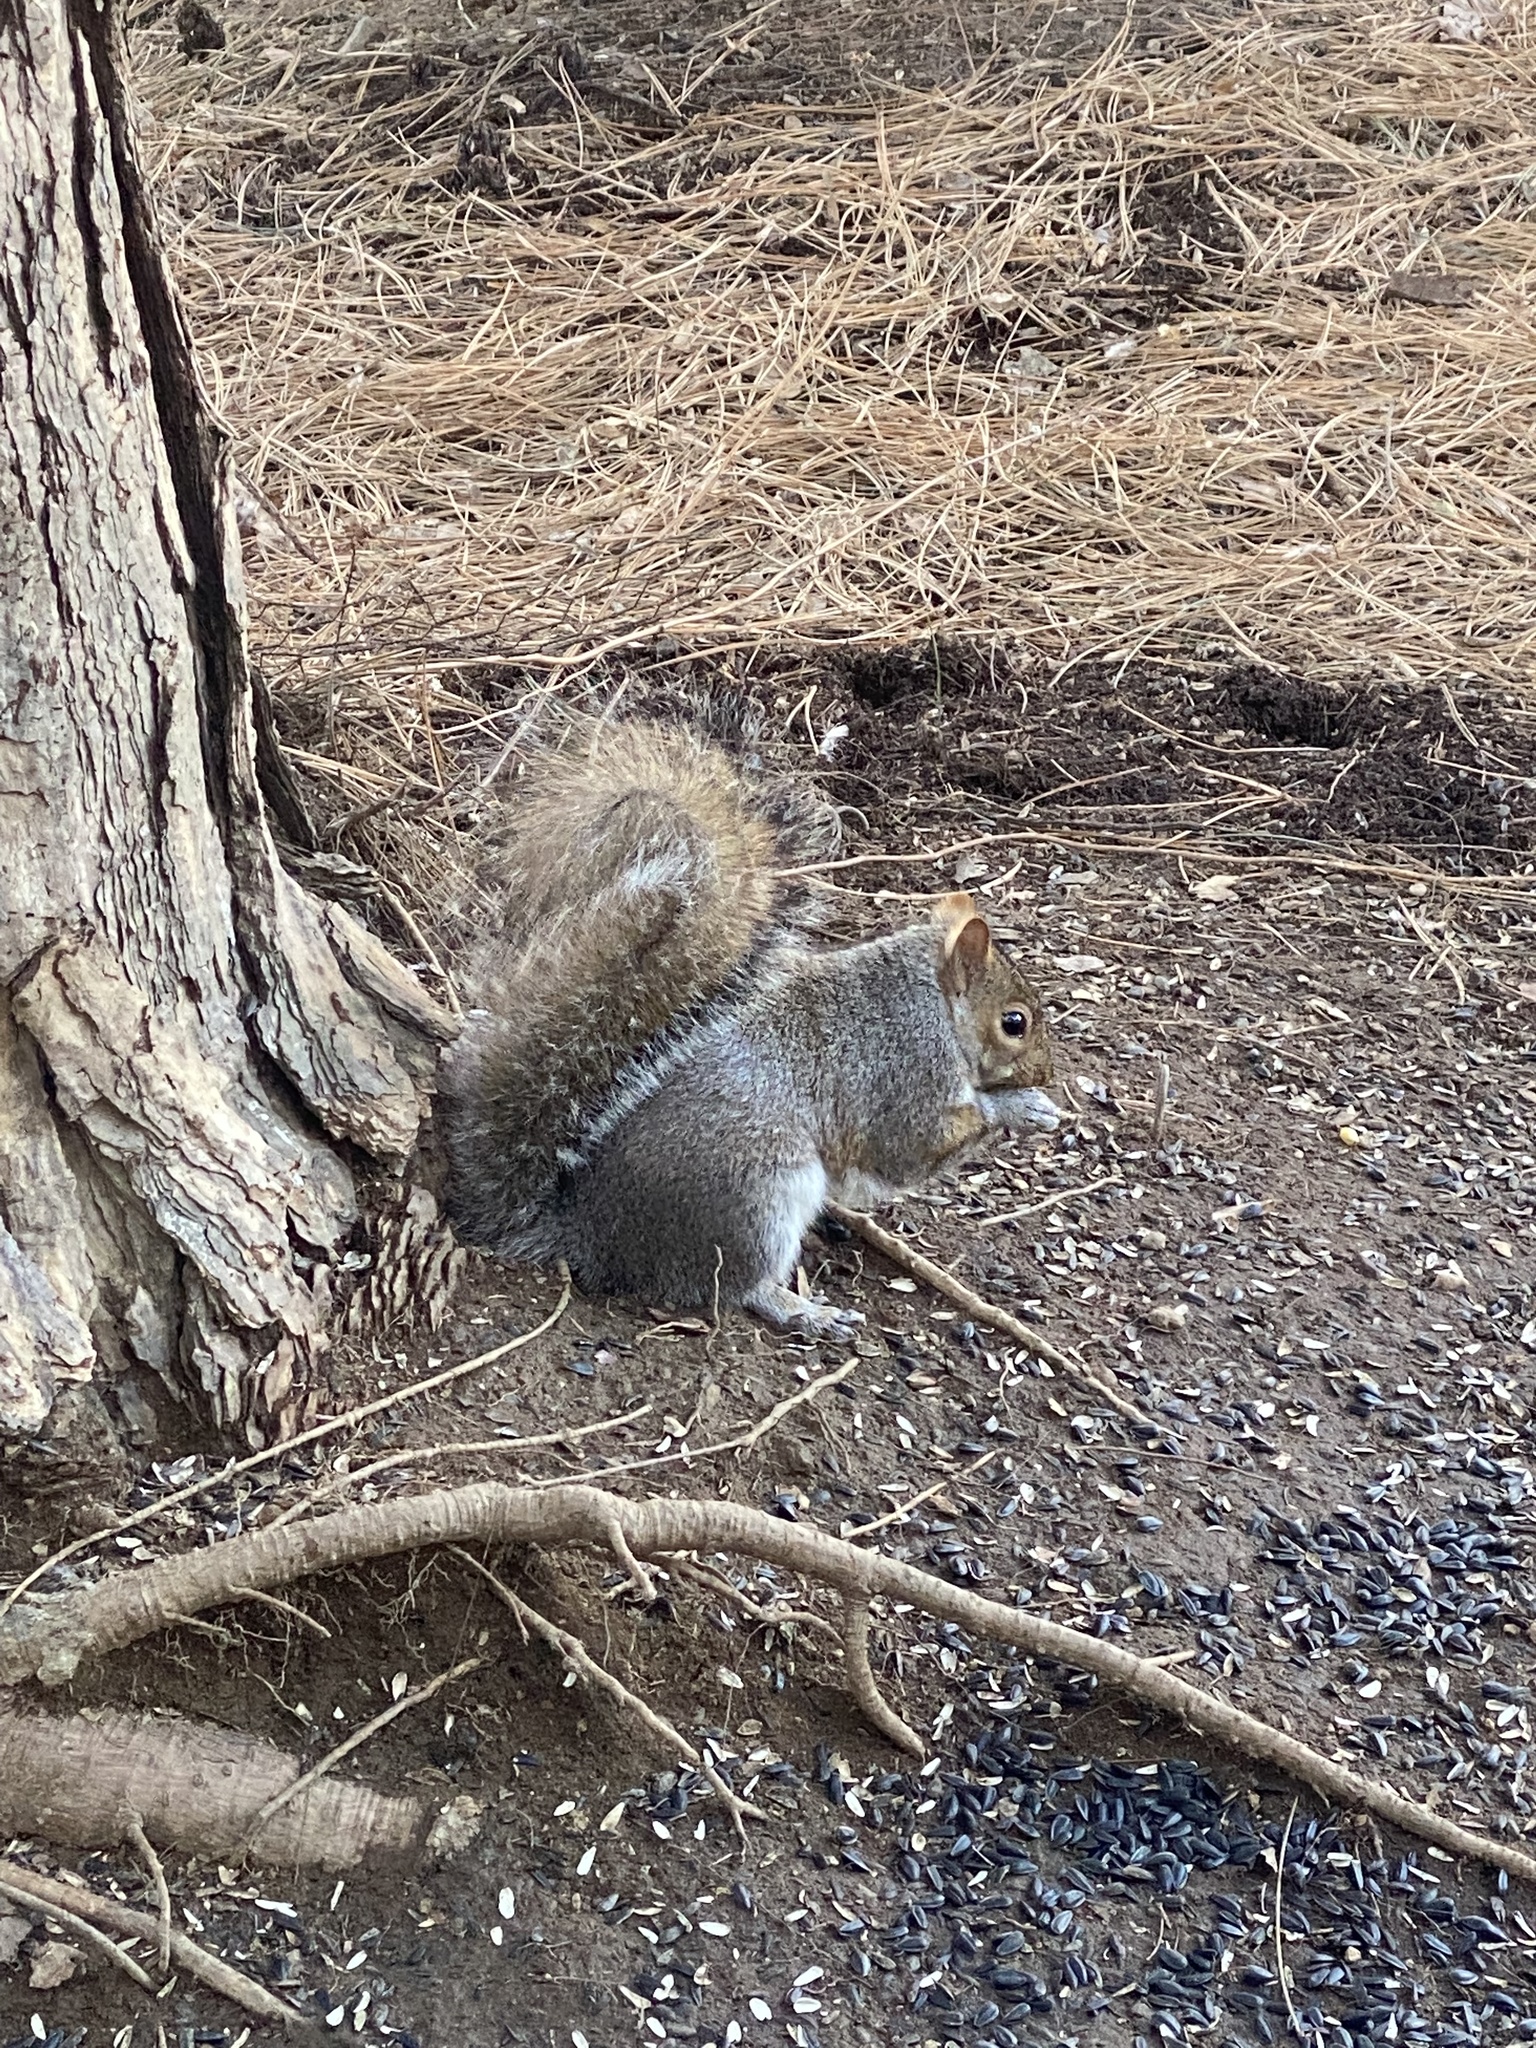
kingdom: Animalia
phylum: Chordata
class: Mammalia
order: Rodentia
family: Sciuridae
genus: Sciurus
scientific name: Sciurus carolinensis
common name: Eastern gray squirrel
